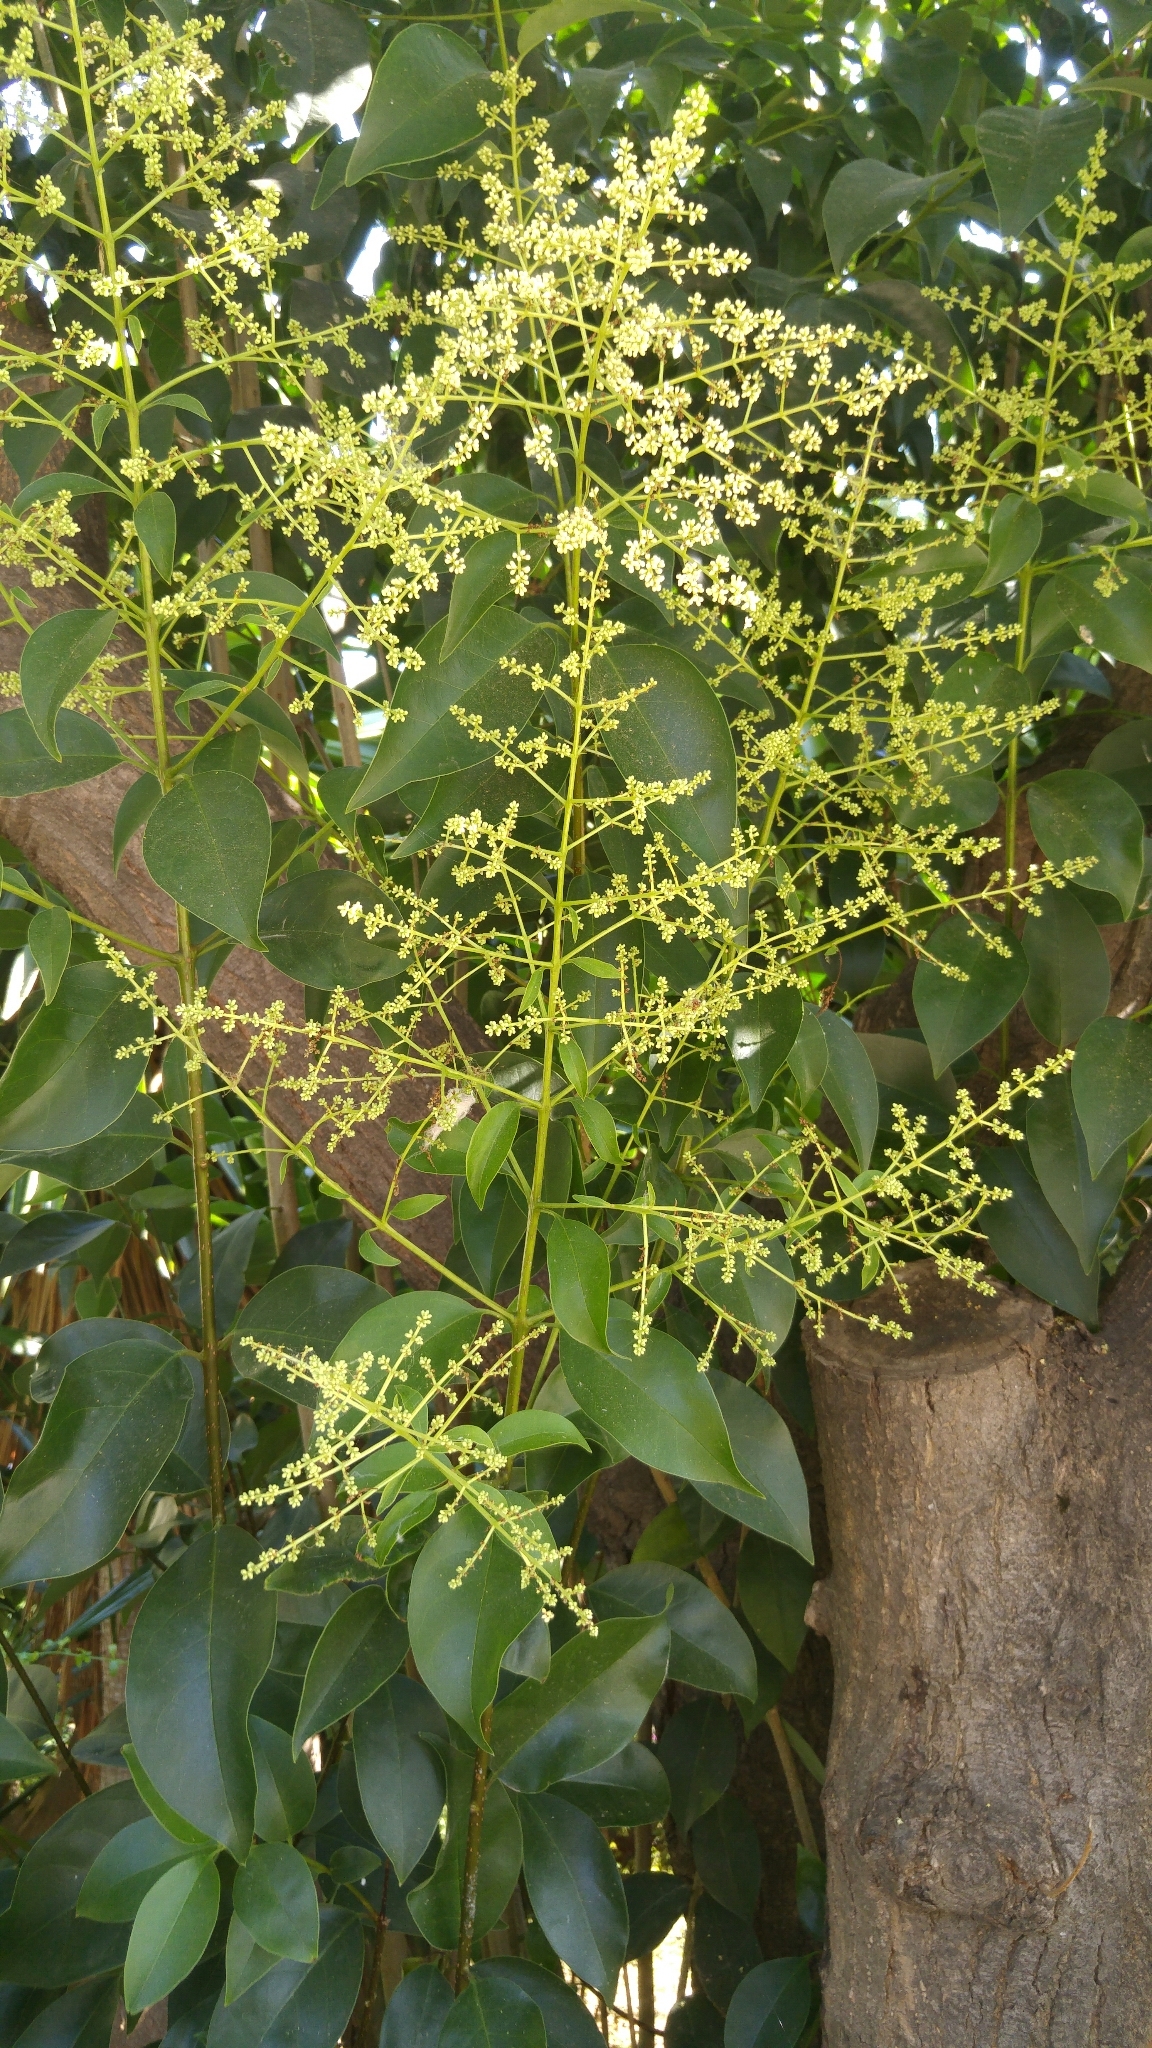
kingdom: Plantae
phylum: Tracheophyta
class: Magnoliopsida
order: Lamiales
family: Oleaceae
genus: Ligustrum
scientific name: Ligustrum lucidum
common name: Glossy privet
